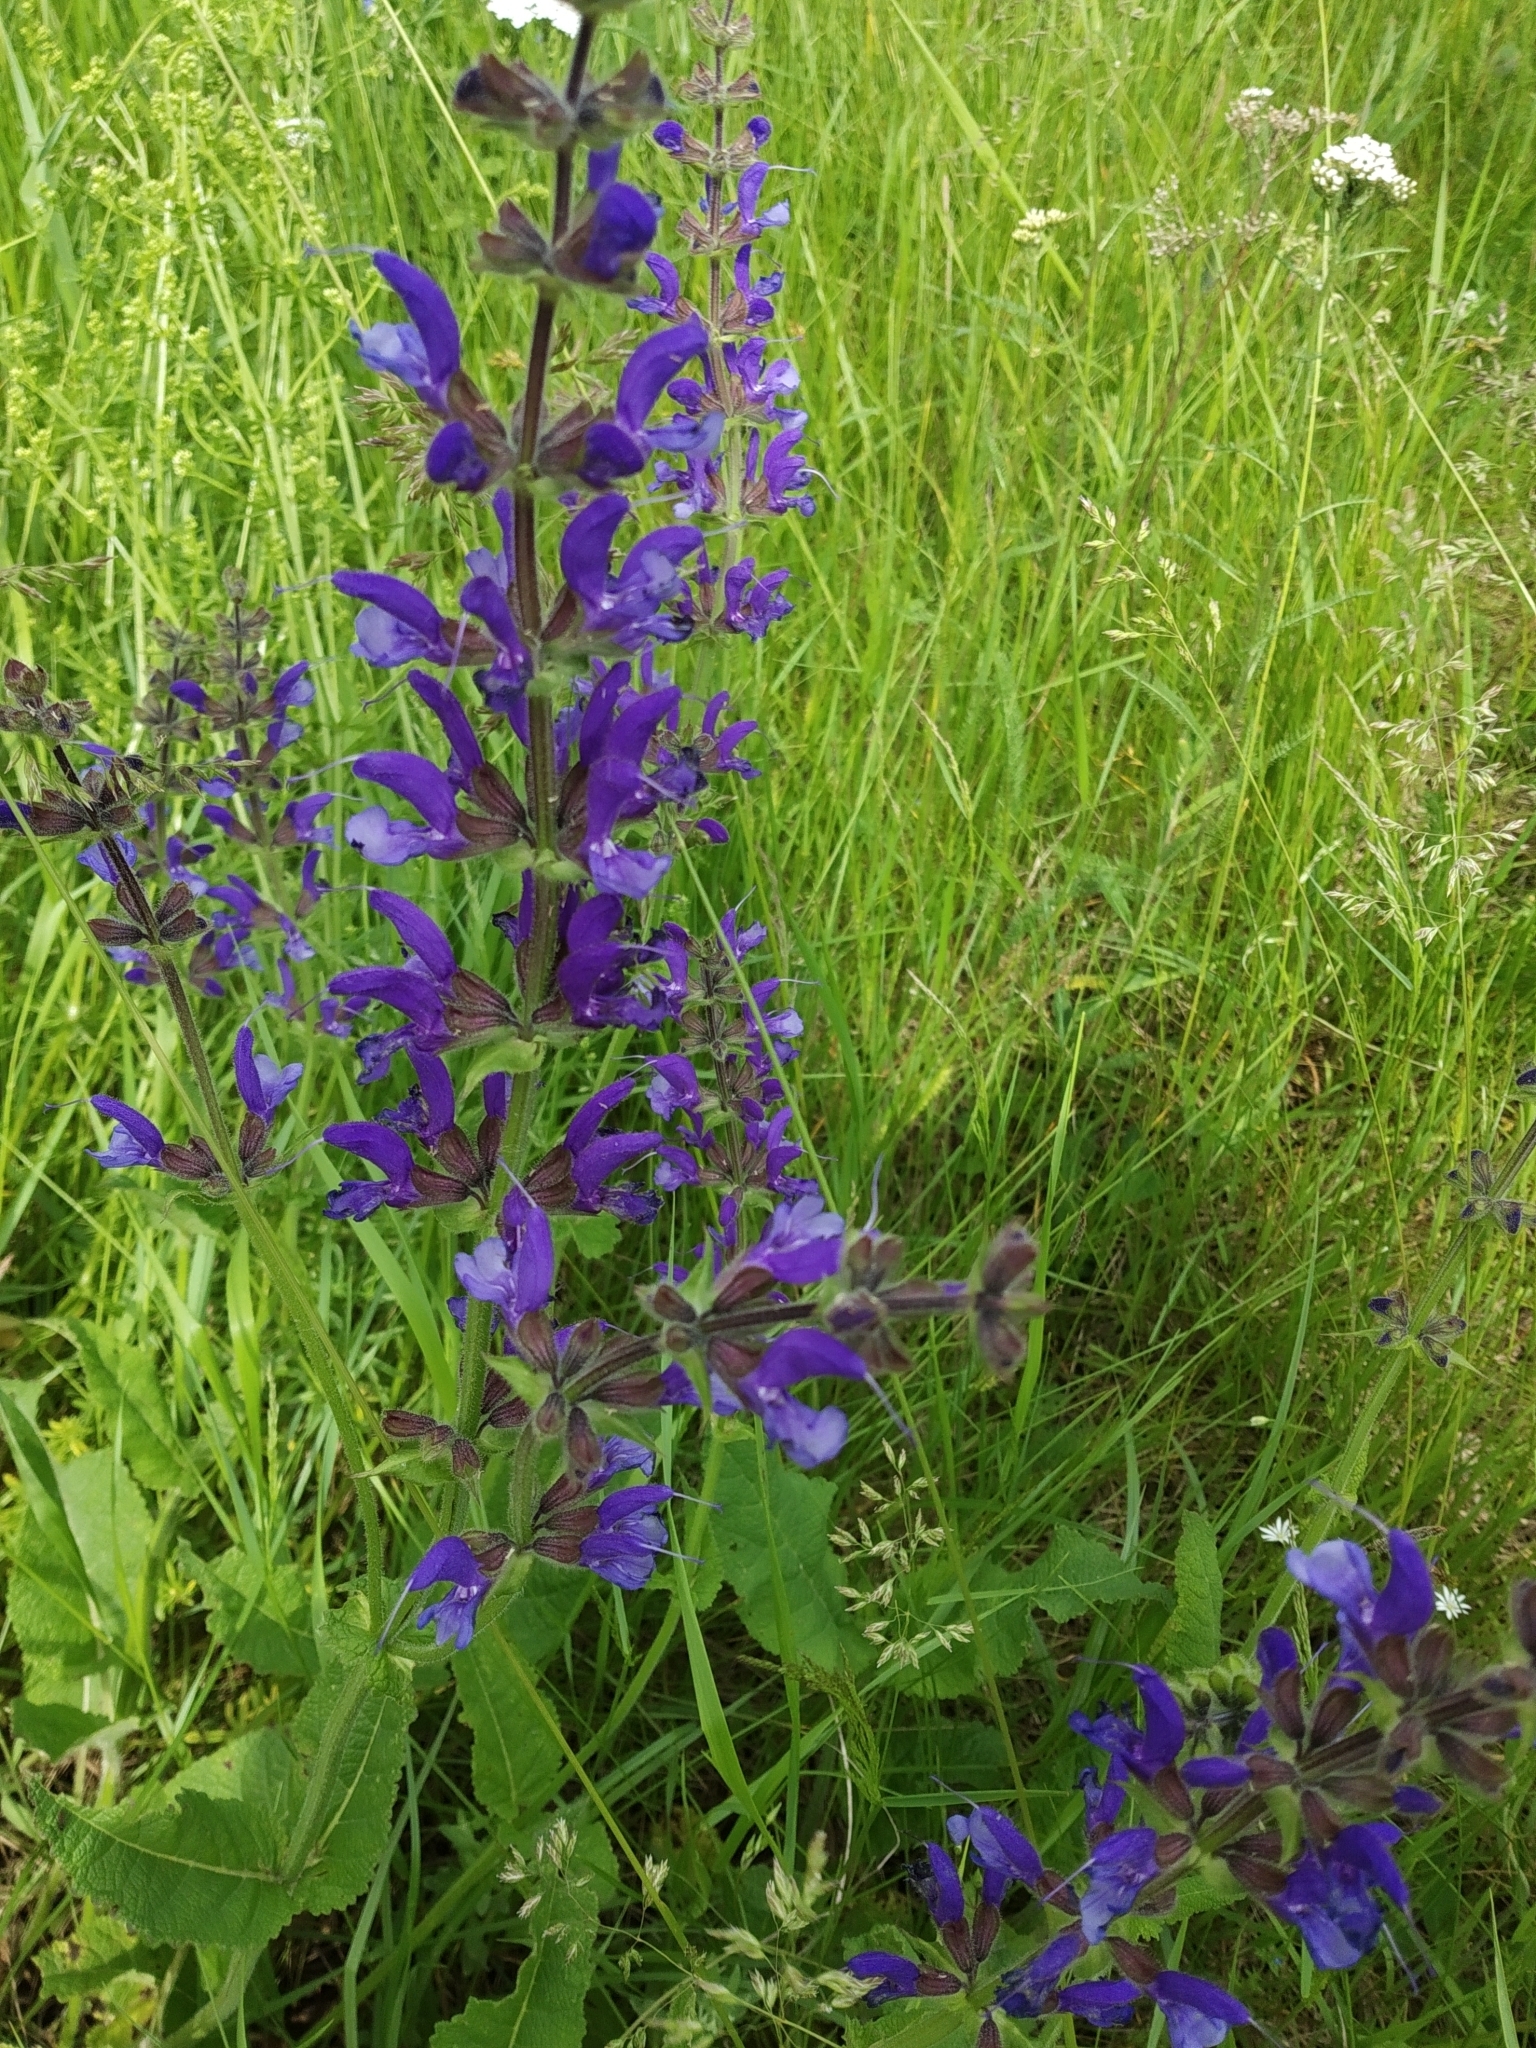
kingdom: Plantae
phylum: Tracheophyta
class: Magnoliopsida
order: Lamiales
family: Lamiaceae
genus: Salvia
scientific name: Salvia pratensis
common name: Meadow sage
